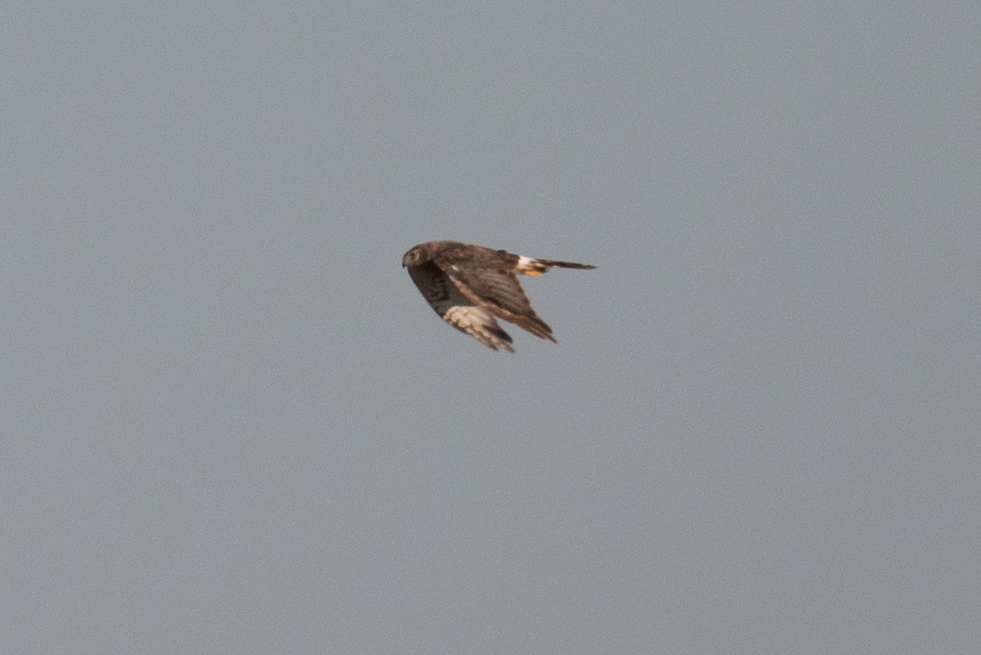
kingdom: Animalia
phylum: Chordata
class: Aves
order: Accipitriformes
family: Accipitridae
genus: Circus
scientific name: Circus cyaneus
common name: Hen harrier
